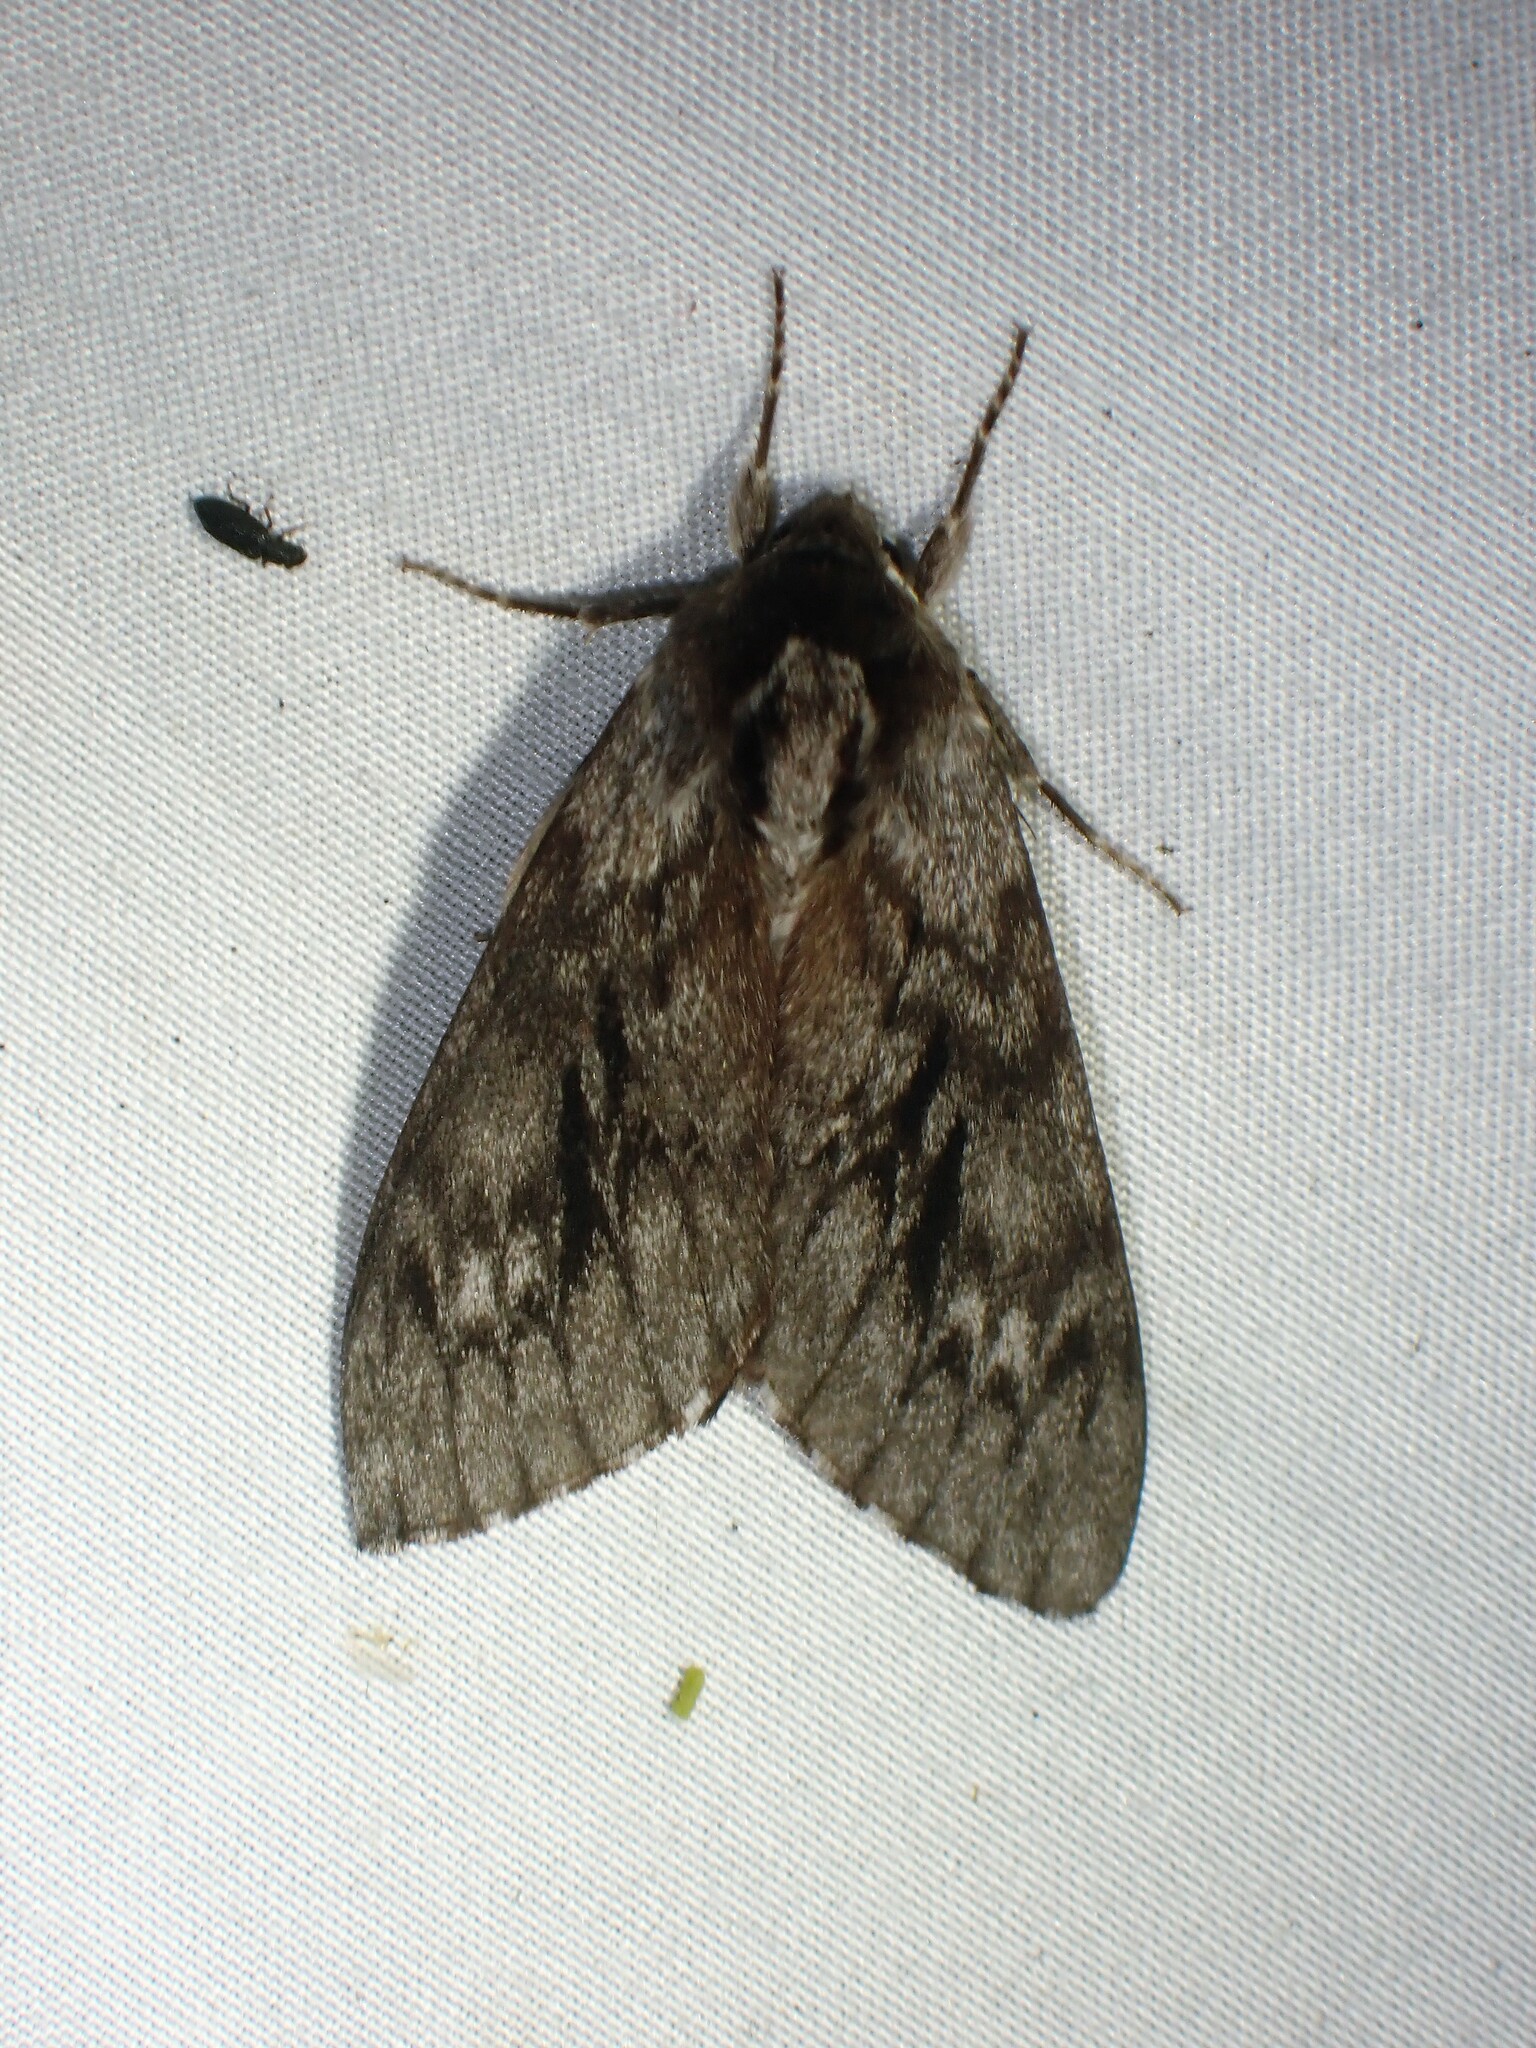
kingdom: Animalia
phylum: Arthropoda
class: Insecta
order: Lepidoptera
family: Sphingidae
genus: Lapara
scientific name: Lapara bombycoides
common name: Northern pine sphinx
